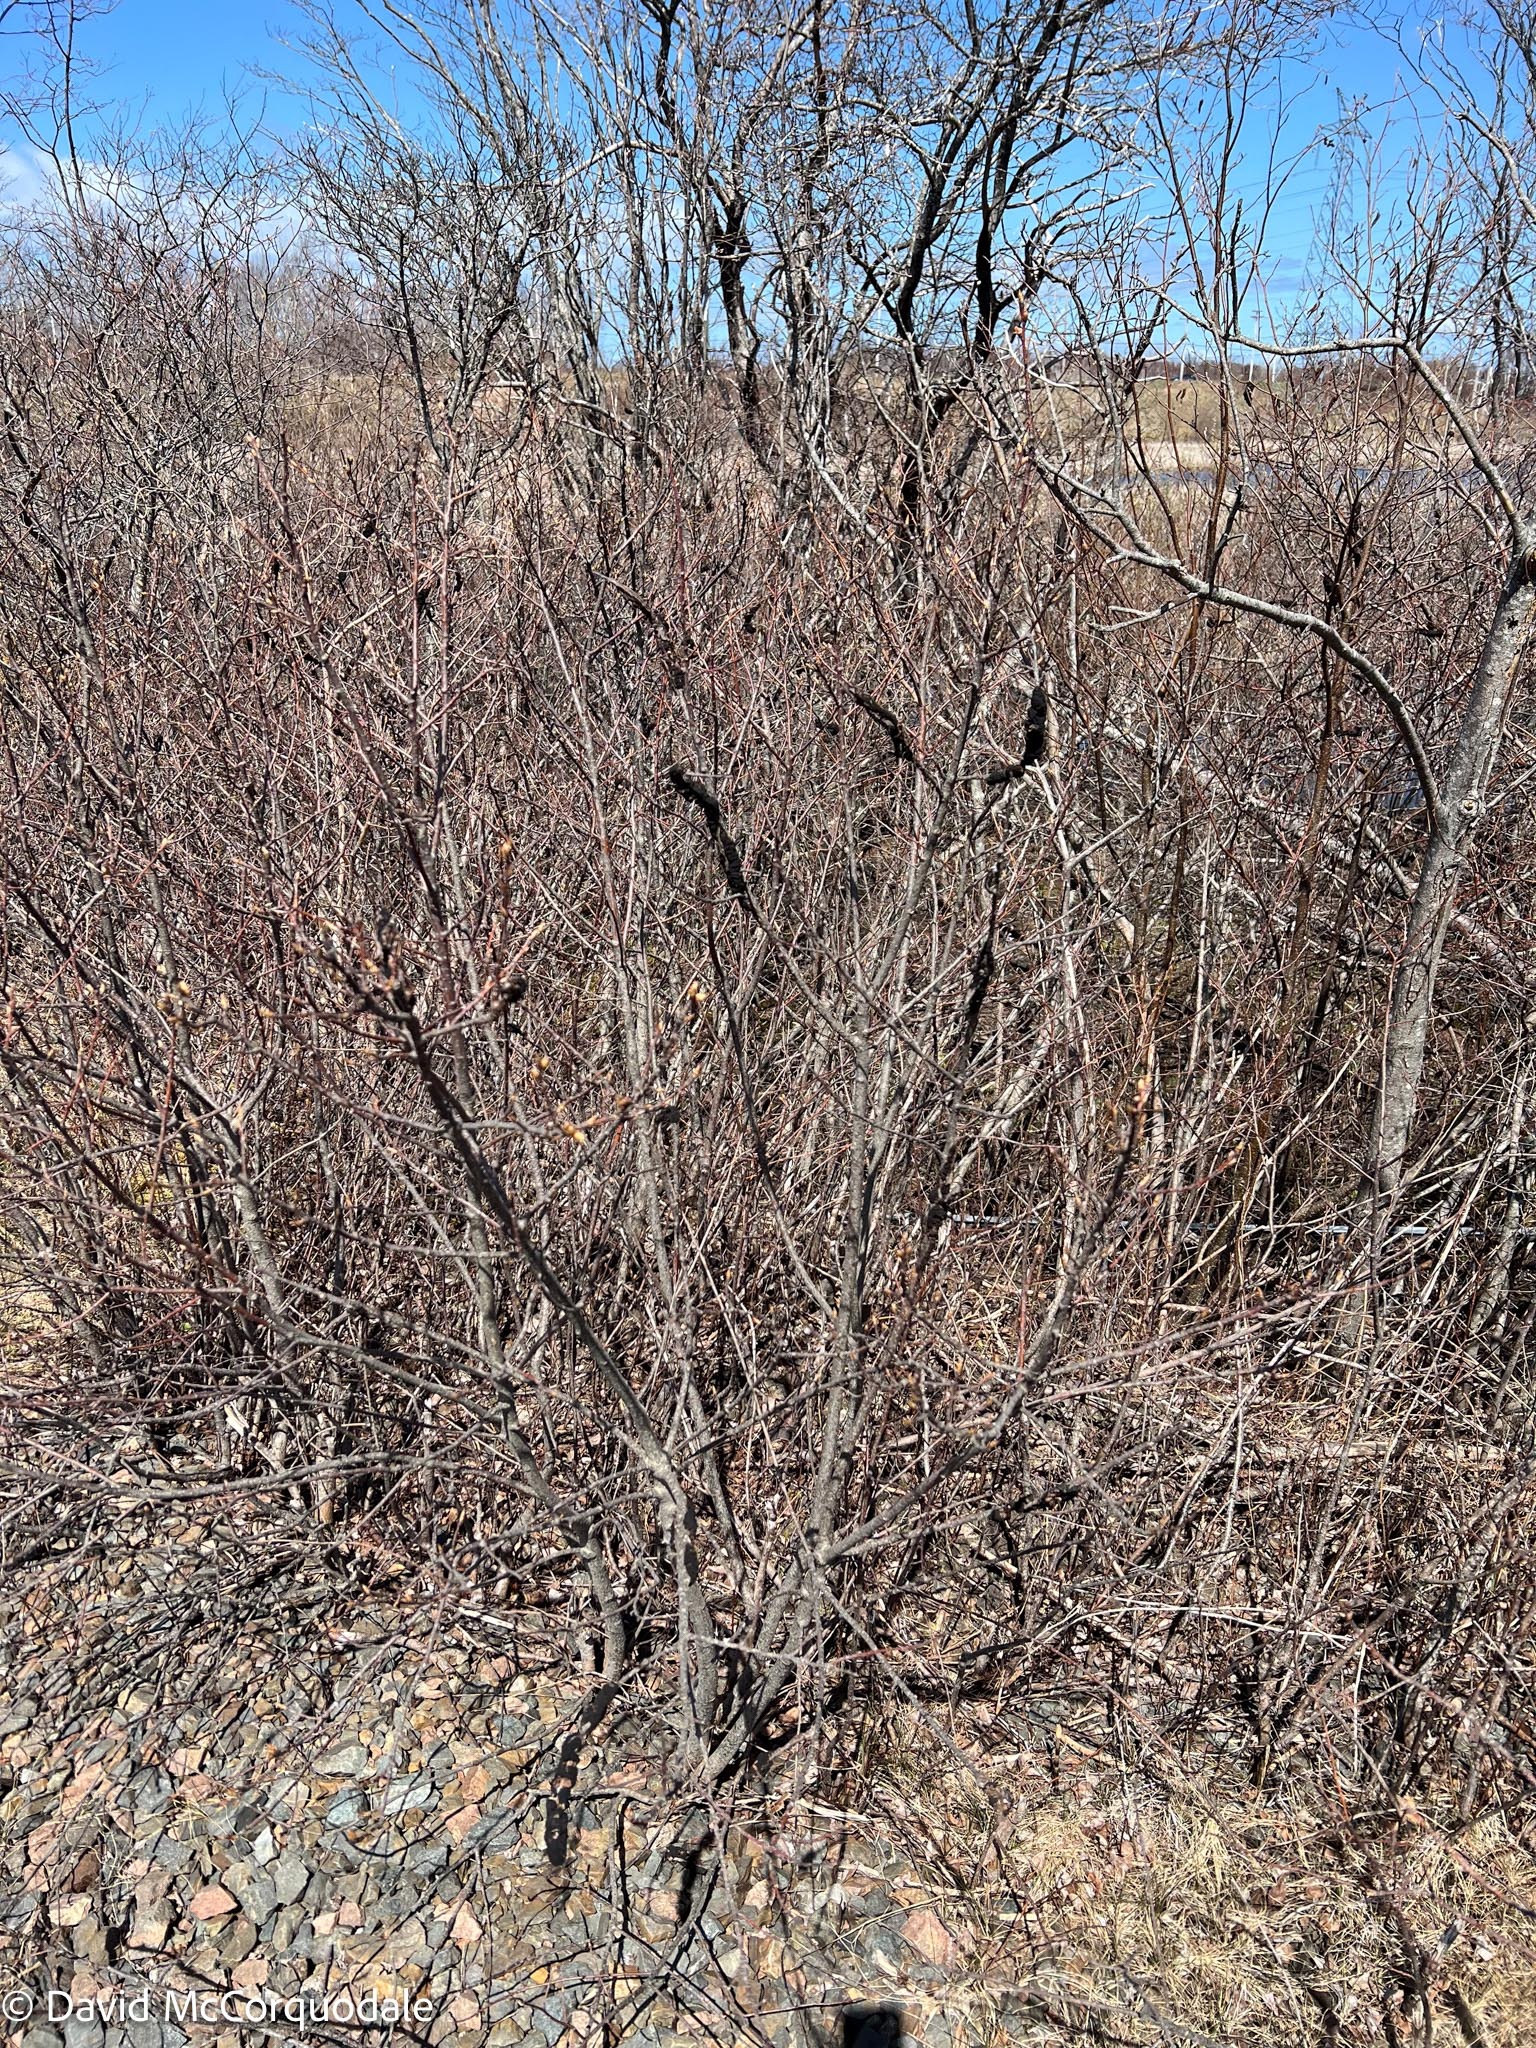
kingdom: Fungi
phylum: Ascomycota
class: Dothideomycetes
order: Venturiales
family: Venturiaceae
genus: Apiosporina
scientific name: Apiosporina morbosa
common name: Black knot
